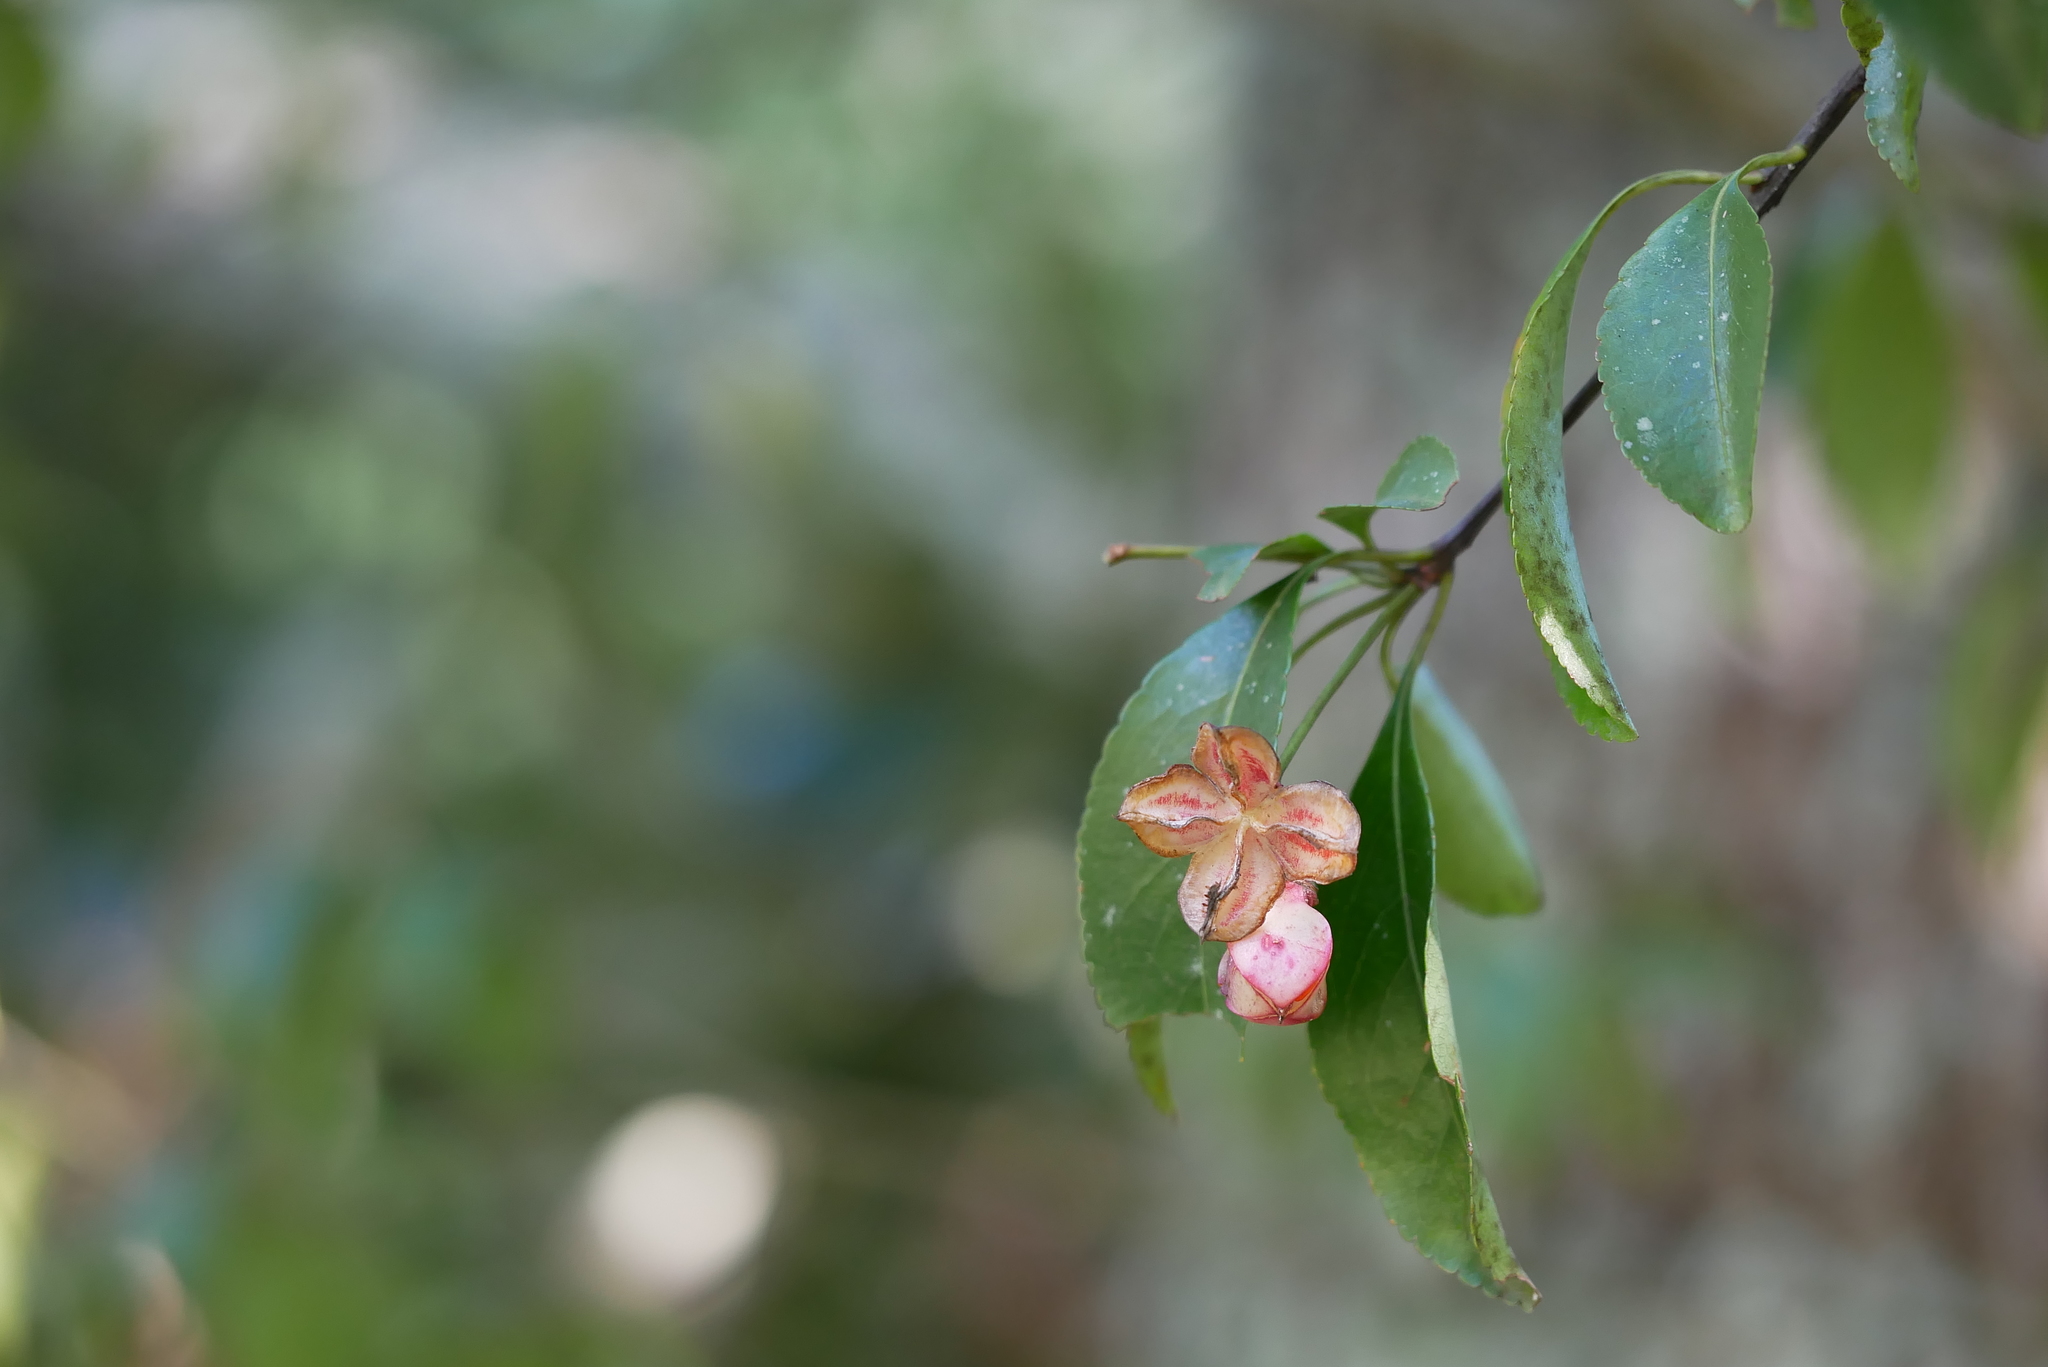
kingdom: Plantae
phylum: Tracheophyta
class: Magnoliopsida
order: Celastrales
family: Celastraceae
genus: Euonymus
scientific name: Euonymus carnosus
